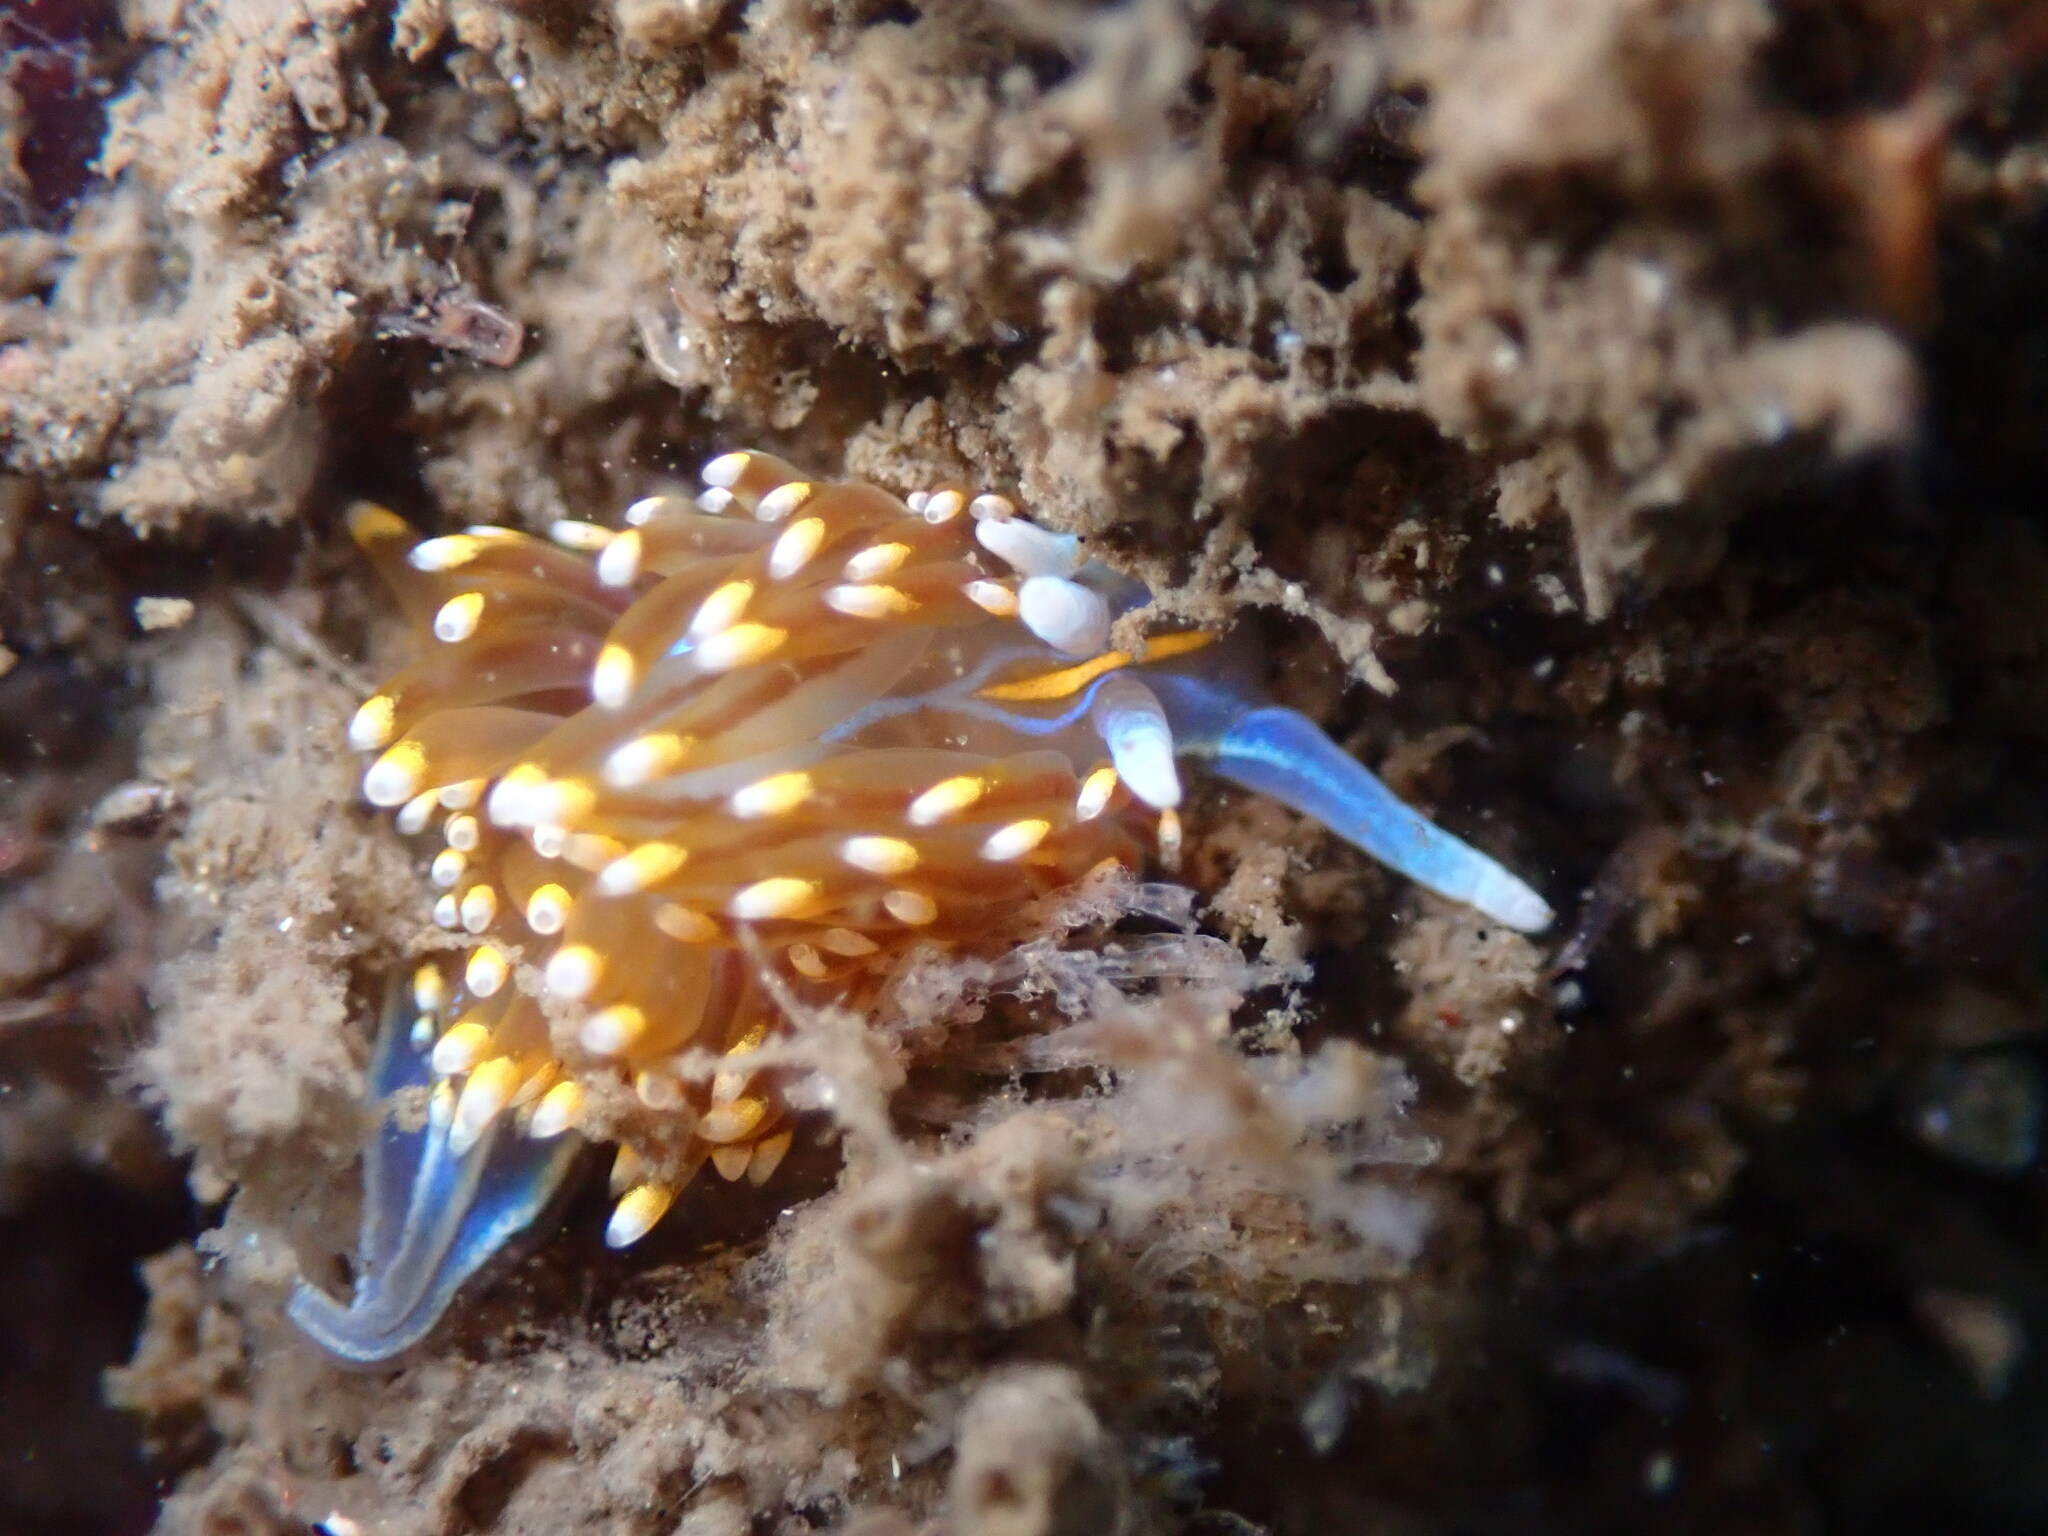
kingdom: Animalia
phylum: Mollusca
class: Gastropoda
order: Nudibranchia
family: Myrrhinidae
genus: Hermissenda
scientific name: Hermissenda opalescens
